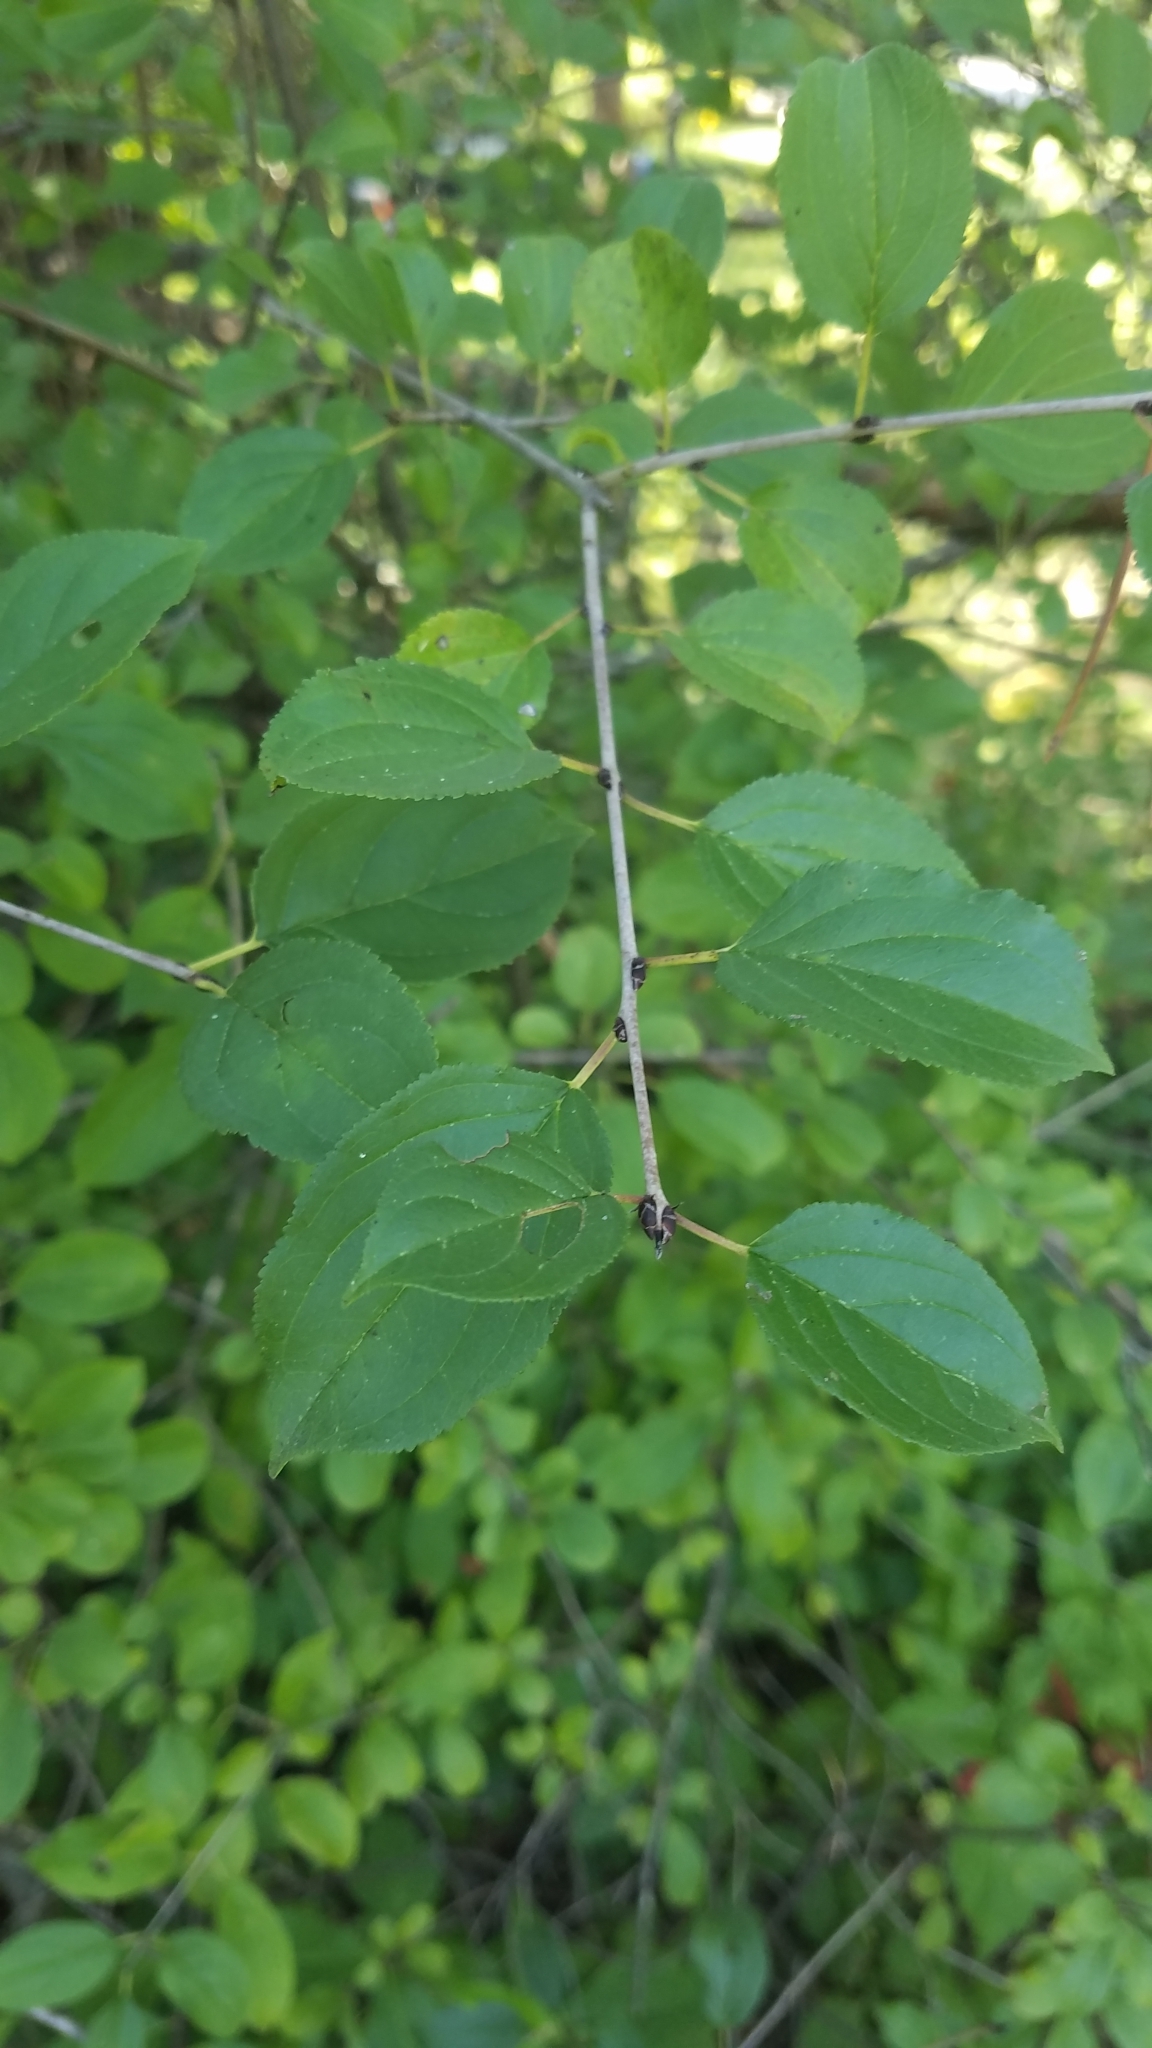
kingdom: Plantae
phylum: Tracheophyta
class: Magnoliopsida
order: Rosales
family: Rhamnaceae
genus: Rhamnus
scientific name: Rhamnus cathartica
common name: Common buckthorn
